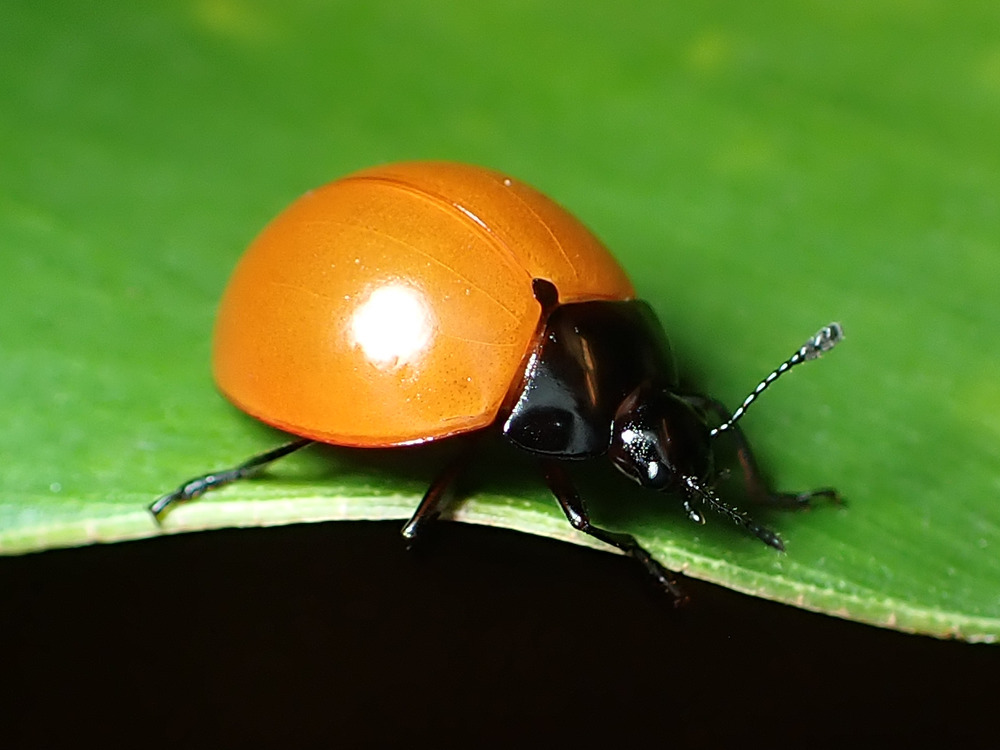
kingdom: Animalia
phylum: Arthropoda
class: Insecta
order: Coleoptera
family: Erotylidae
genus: Aegithus
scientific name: Aegithus
